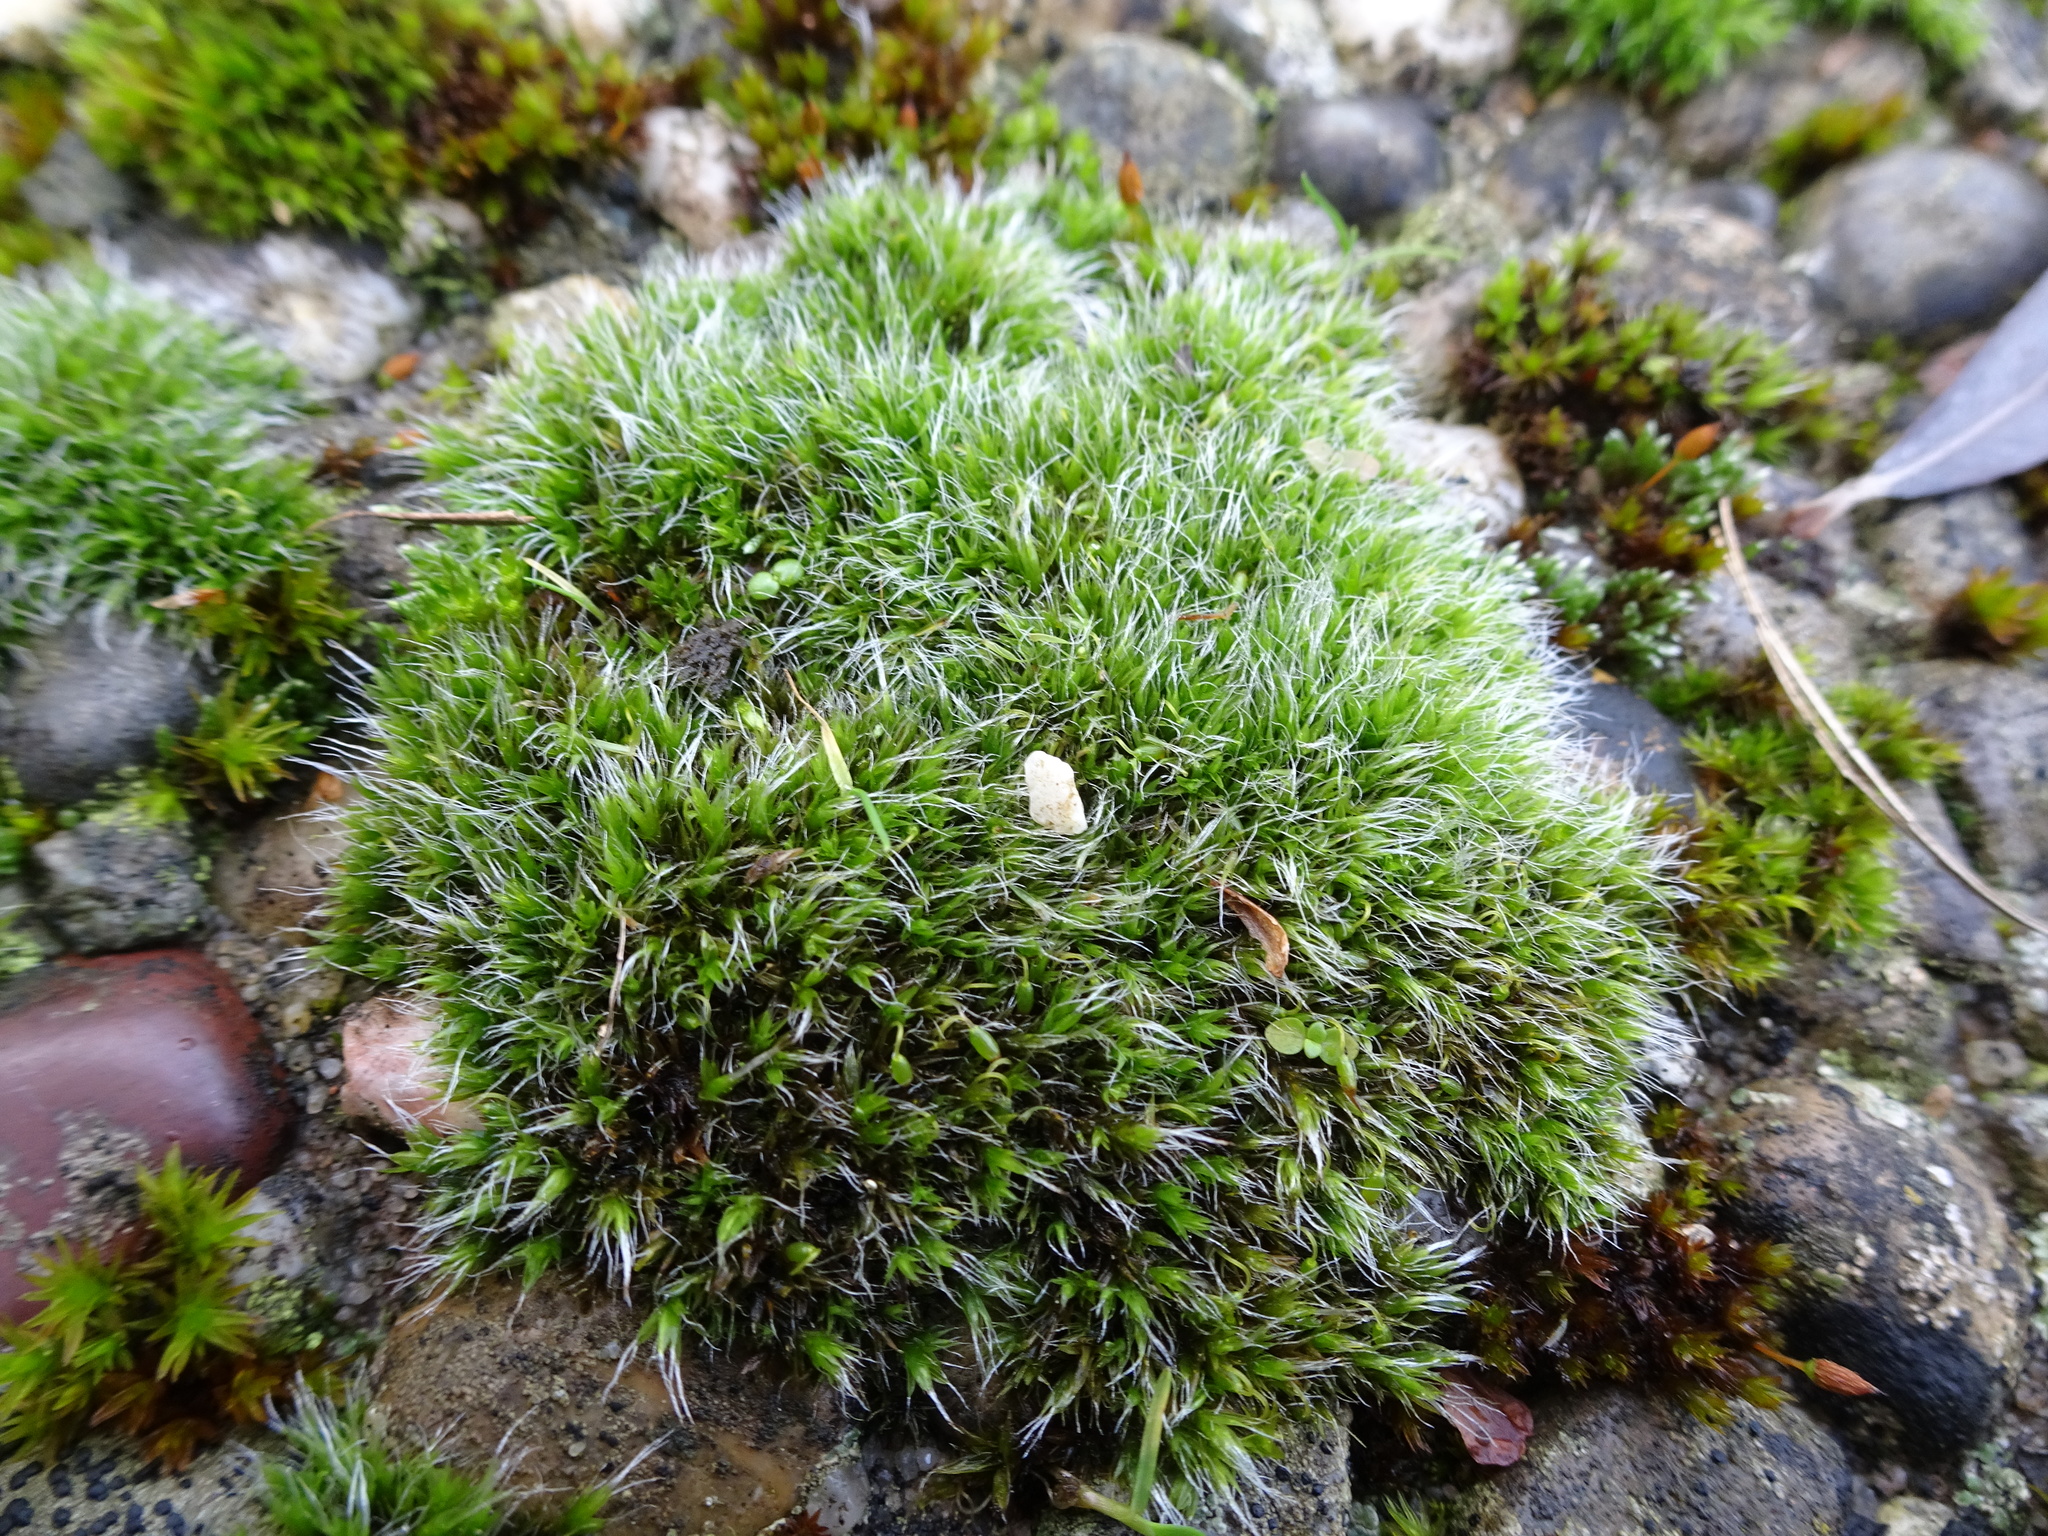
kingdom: Plantae
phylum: Bryophyta
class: Bryopsida
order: Grimmiales
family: Grimmiaceae
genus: Grimmia
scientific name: Grimmia pulvinata
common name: Grey-cushioned grimmia
